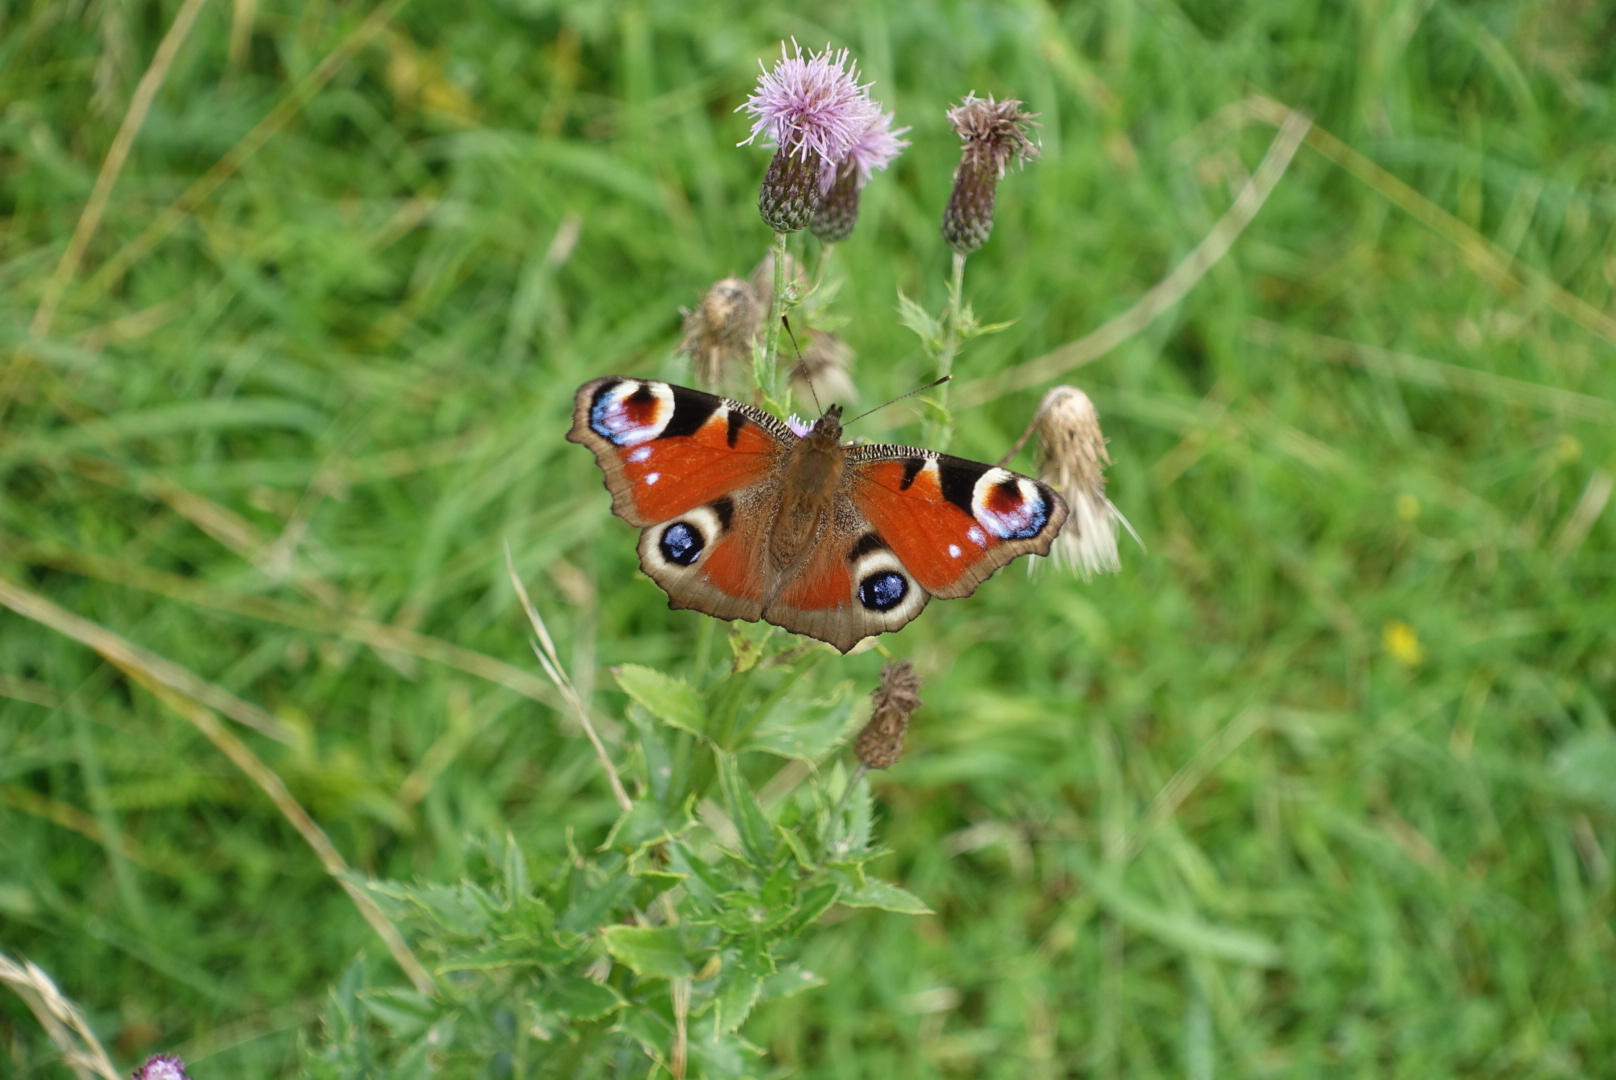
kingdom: Animalia
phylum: Arthropoda
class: Insecta
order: Lepidoptera
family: Nymphalidae
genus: Aglais
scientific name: Aglais io
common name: Peacock
